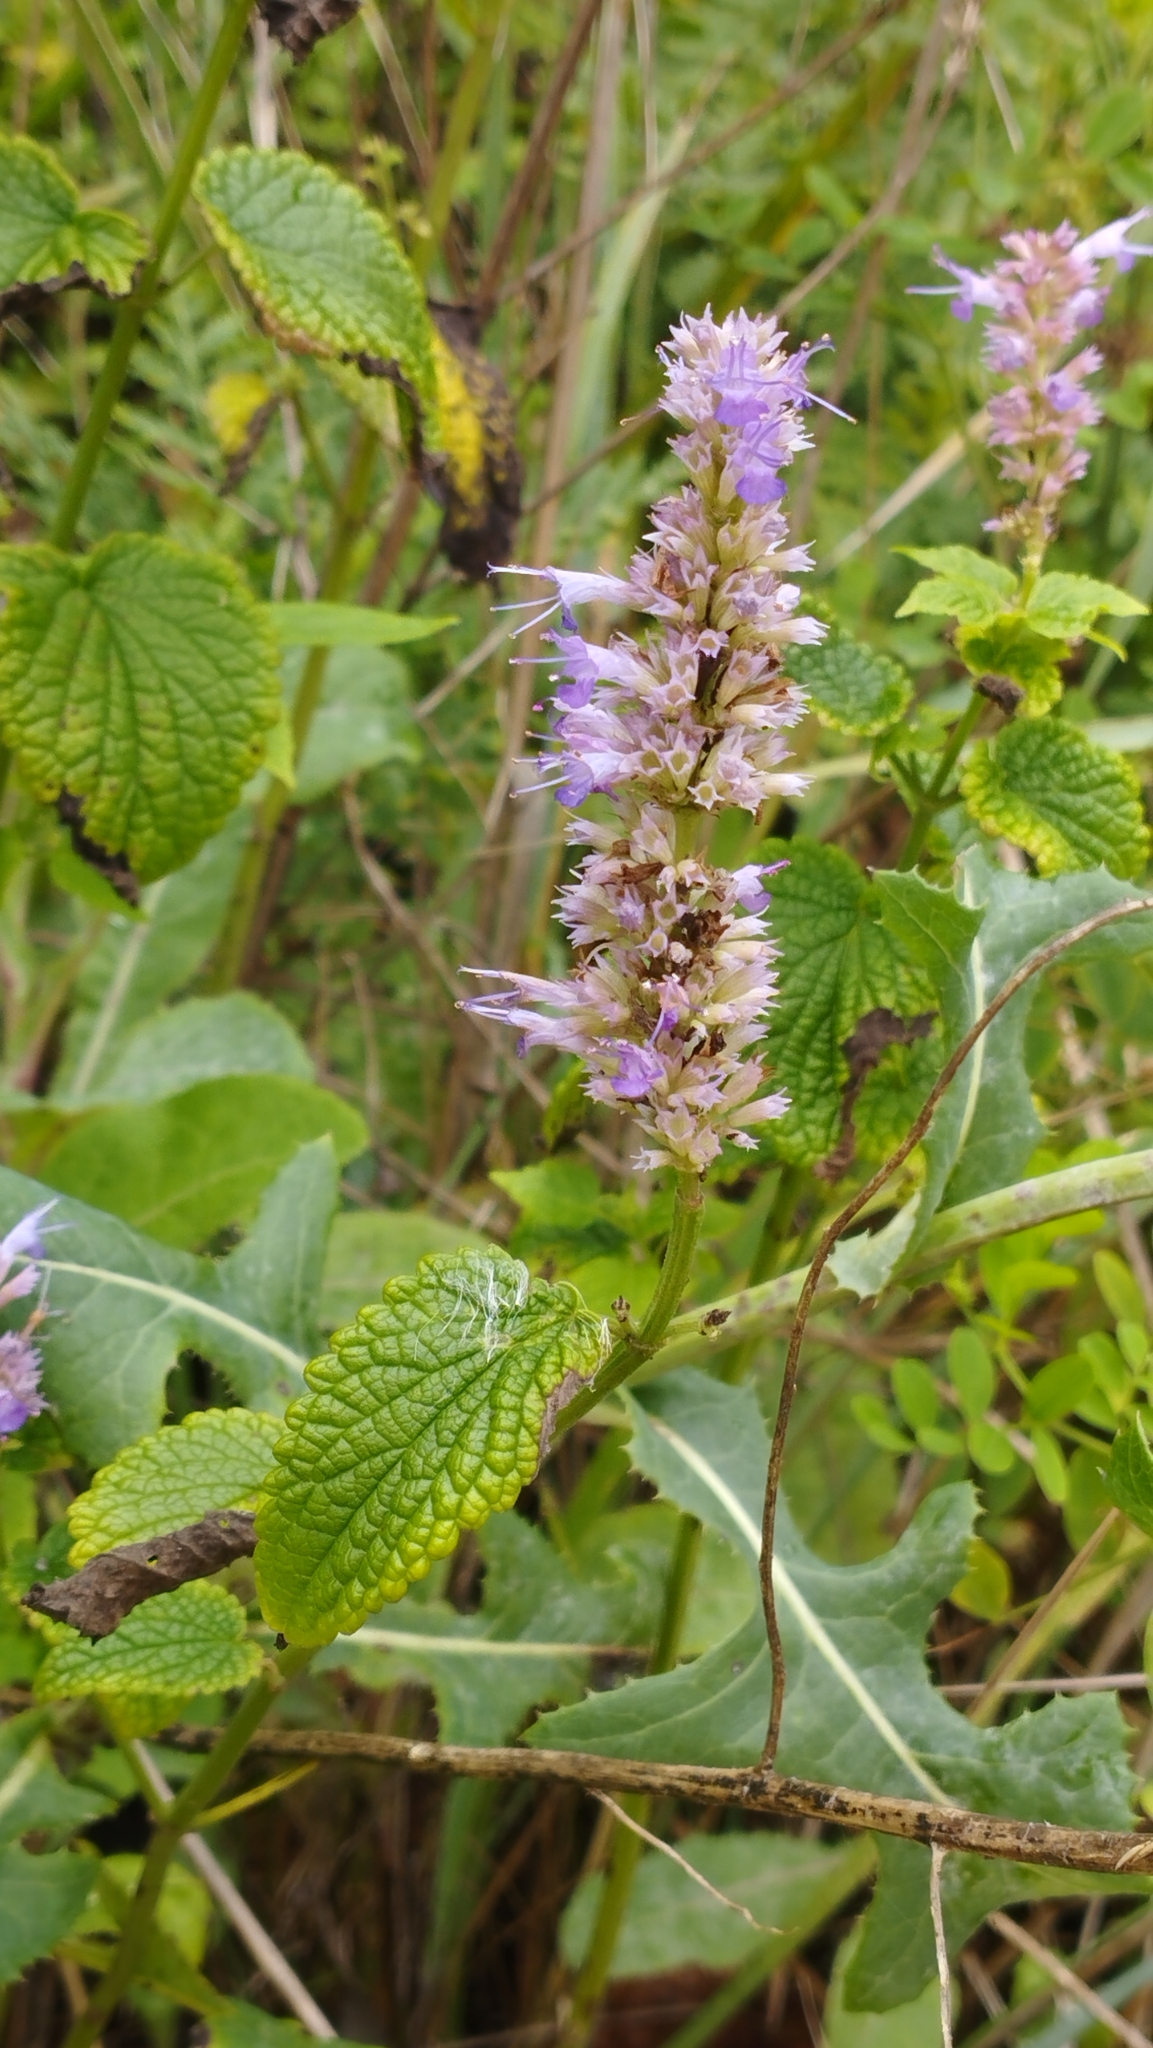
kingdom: Plantae
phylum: Tracheophyta
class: Magnoliopsida
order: Lamiales
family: Lamiaceae
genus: Agastache
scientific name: Agastache rugosa
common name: Mint
